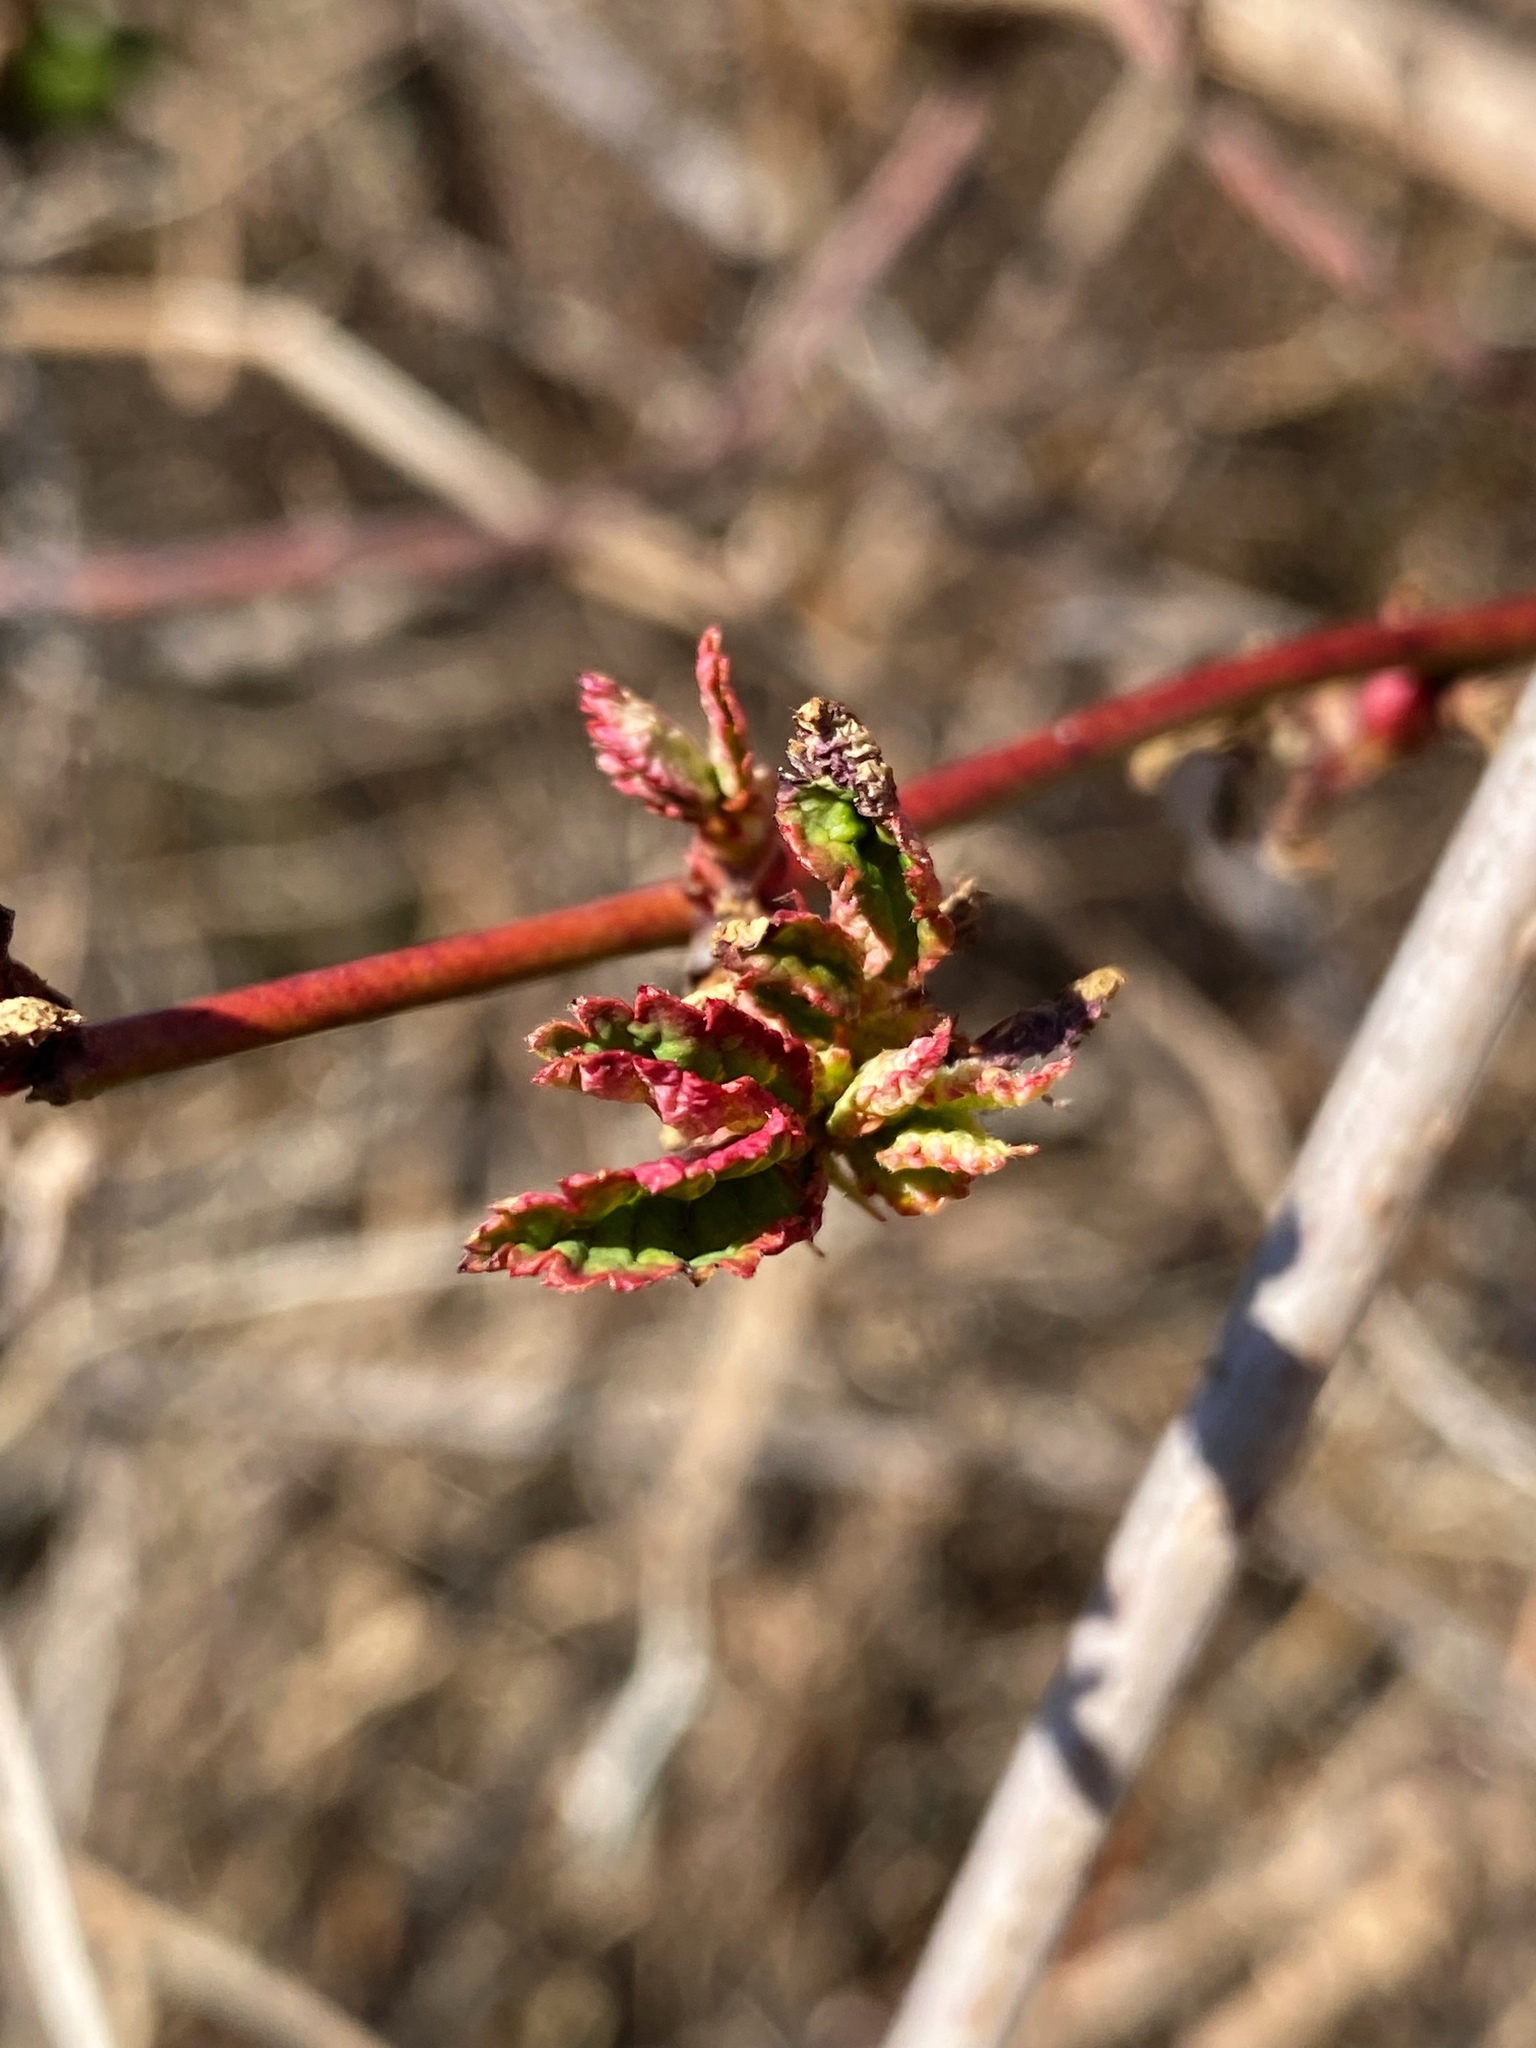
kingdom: Viruses
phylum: Negarnaviricota
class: Ellioviricetes
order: Bunyavirales
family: Fimoviridae
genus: Emaravirus
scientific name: Emaravirus rosae
